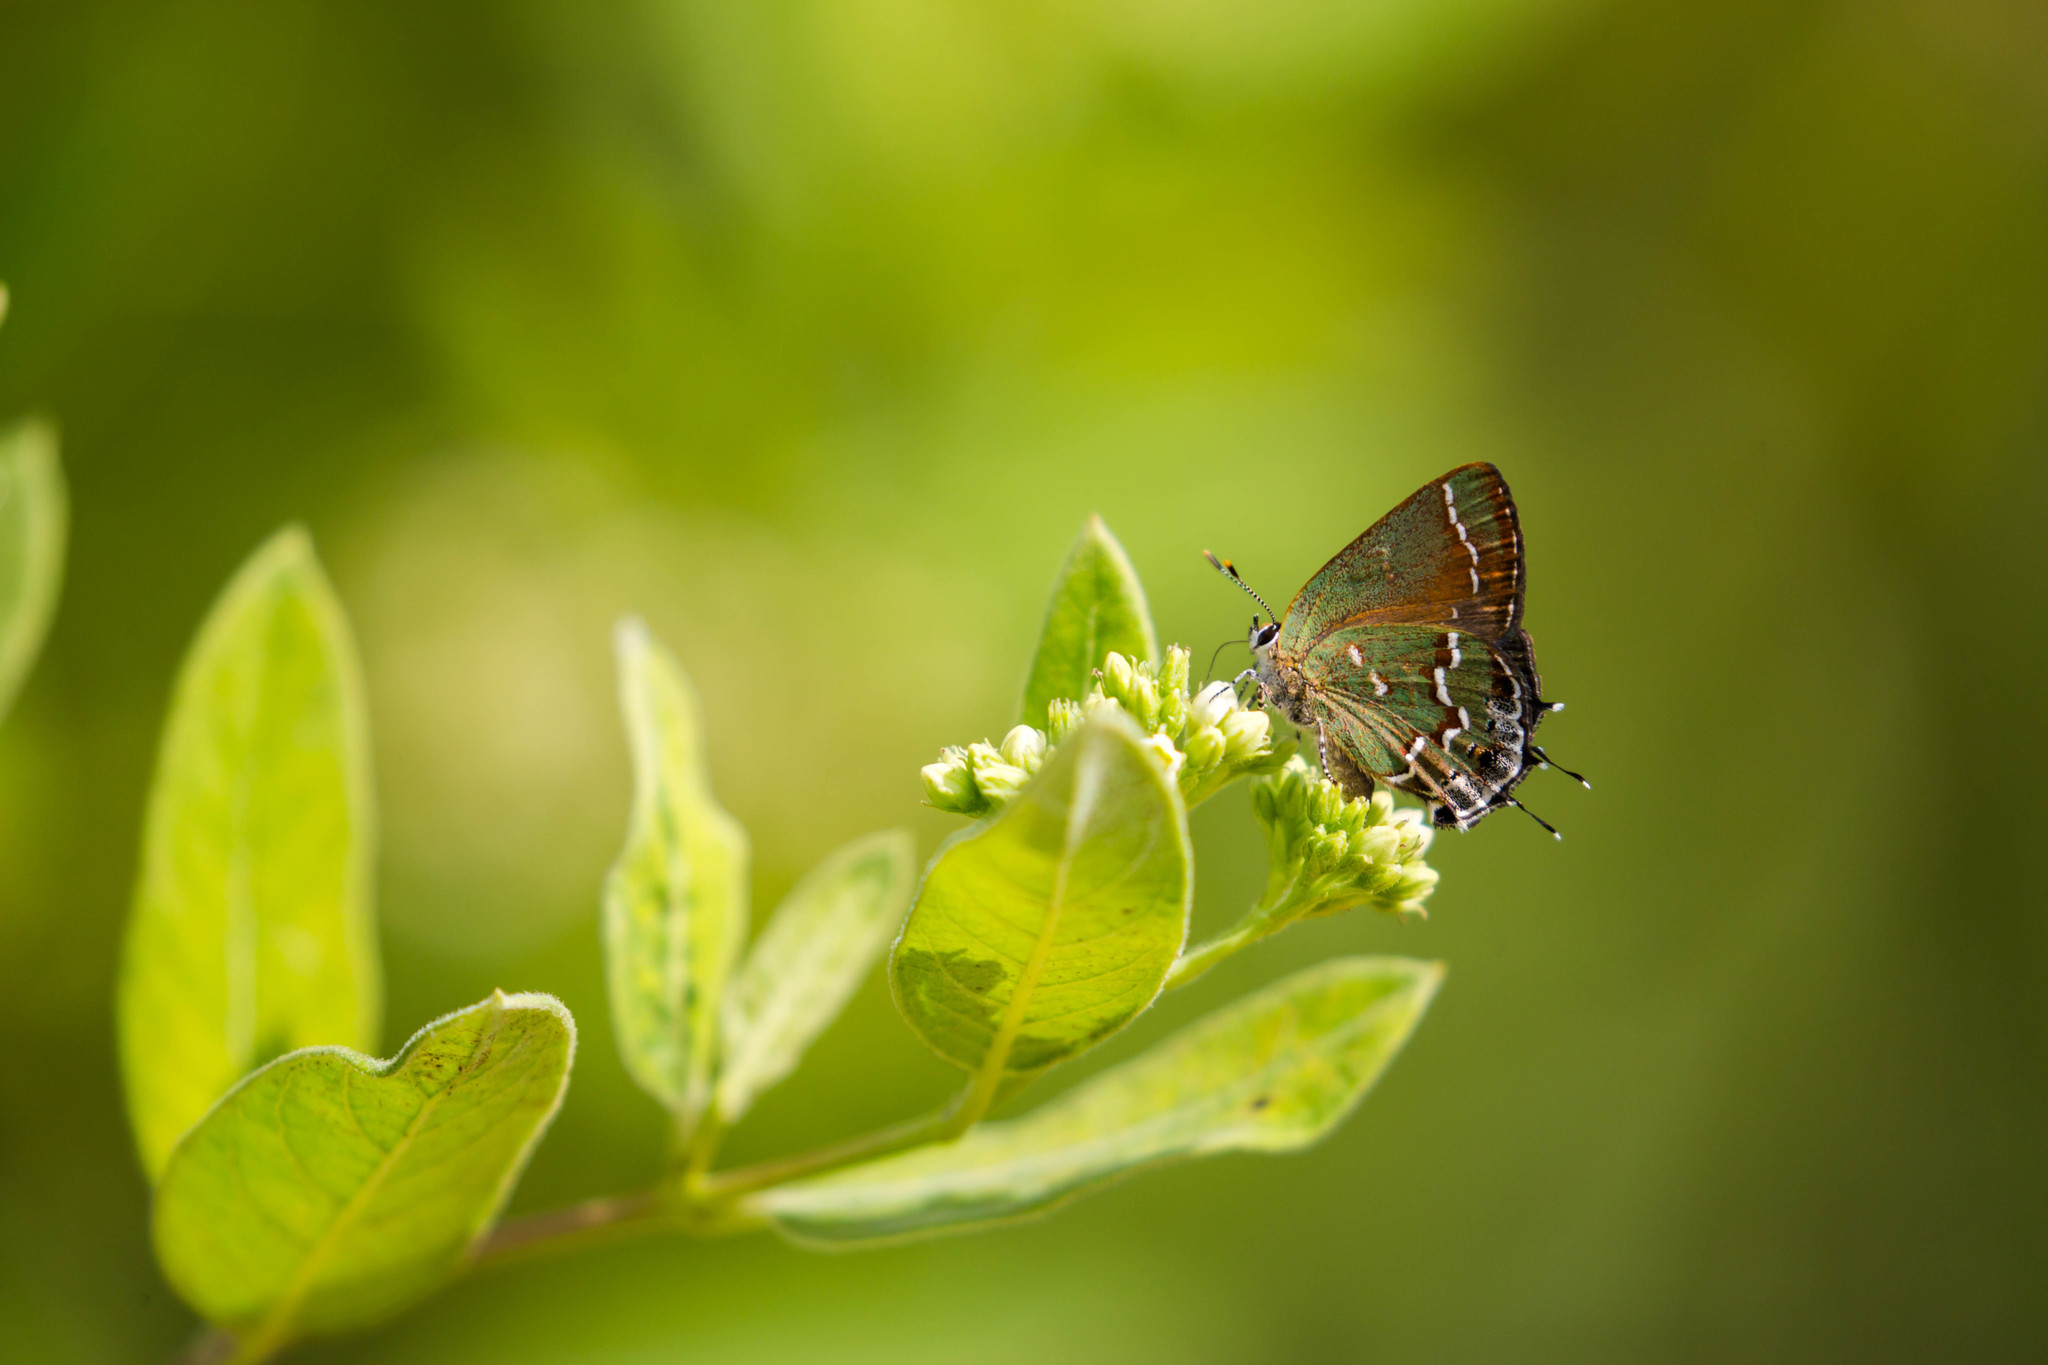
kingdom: Animalia
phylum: Arthropoda
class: Insecta
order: Lepidoptera
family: Lycaenidae
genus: Mitoura
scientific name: Mitoura gryneus
